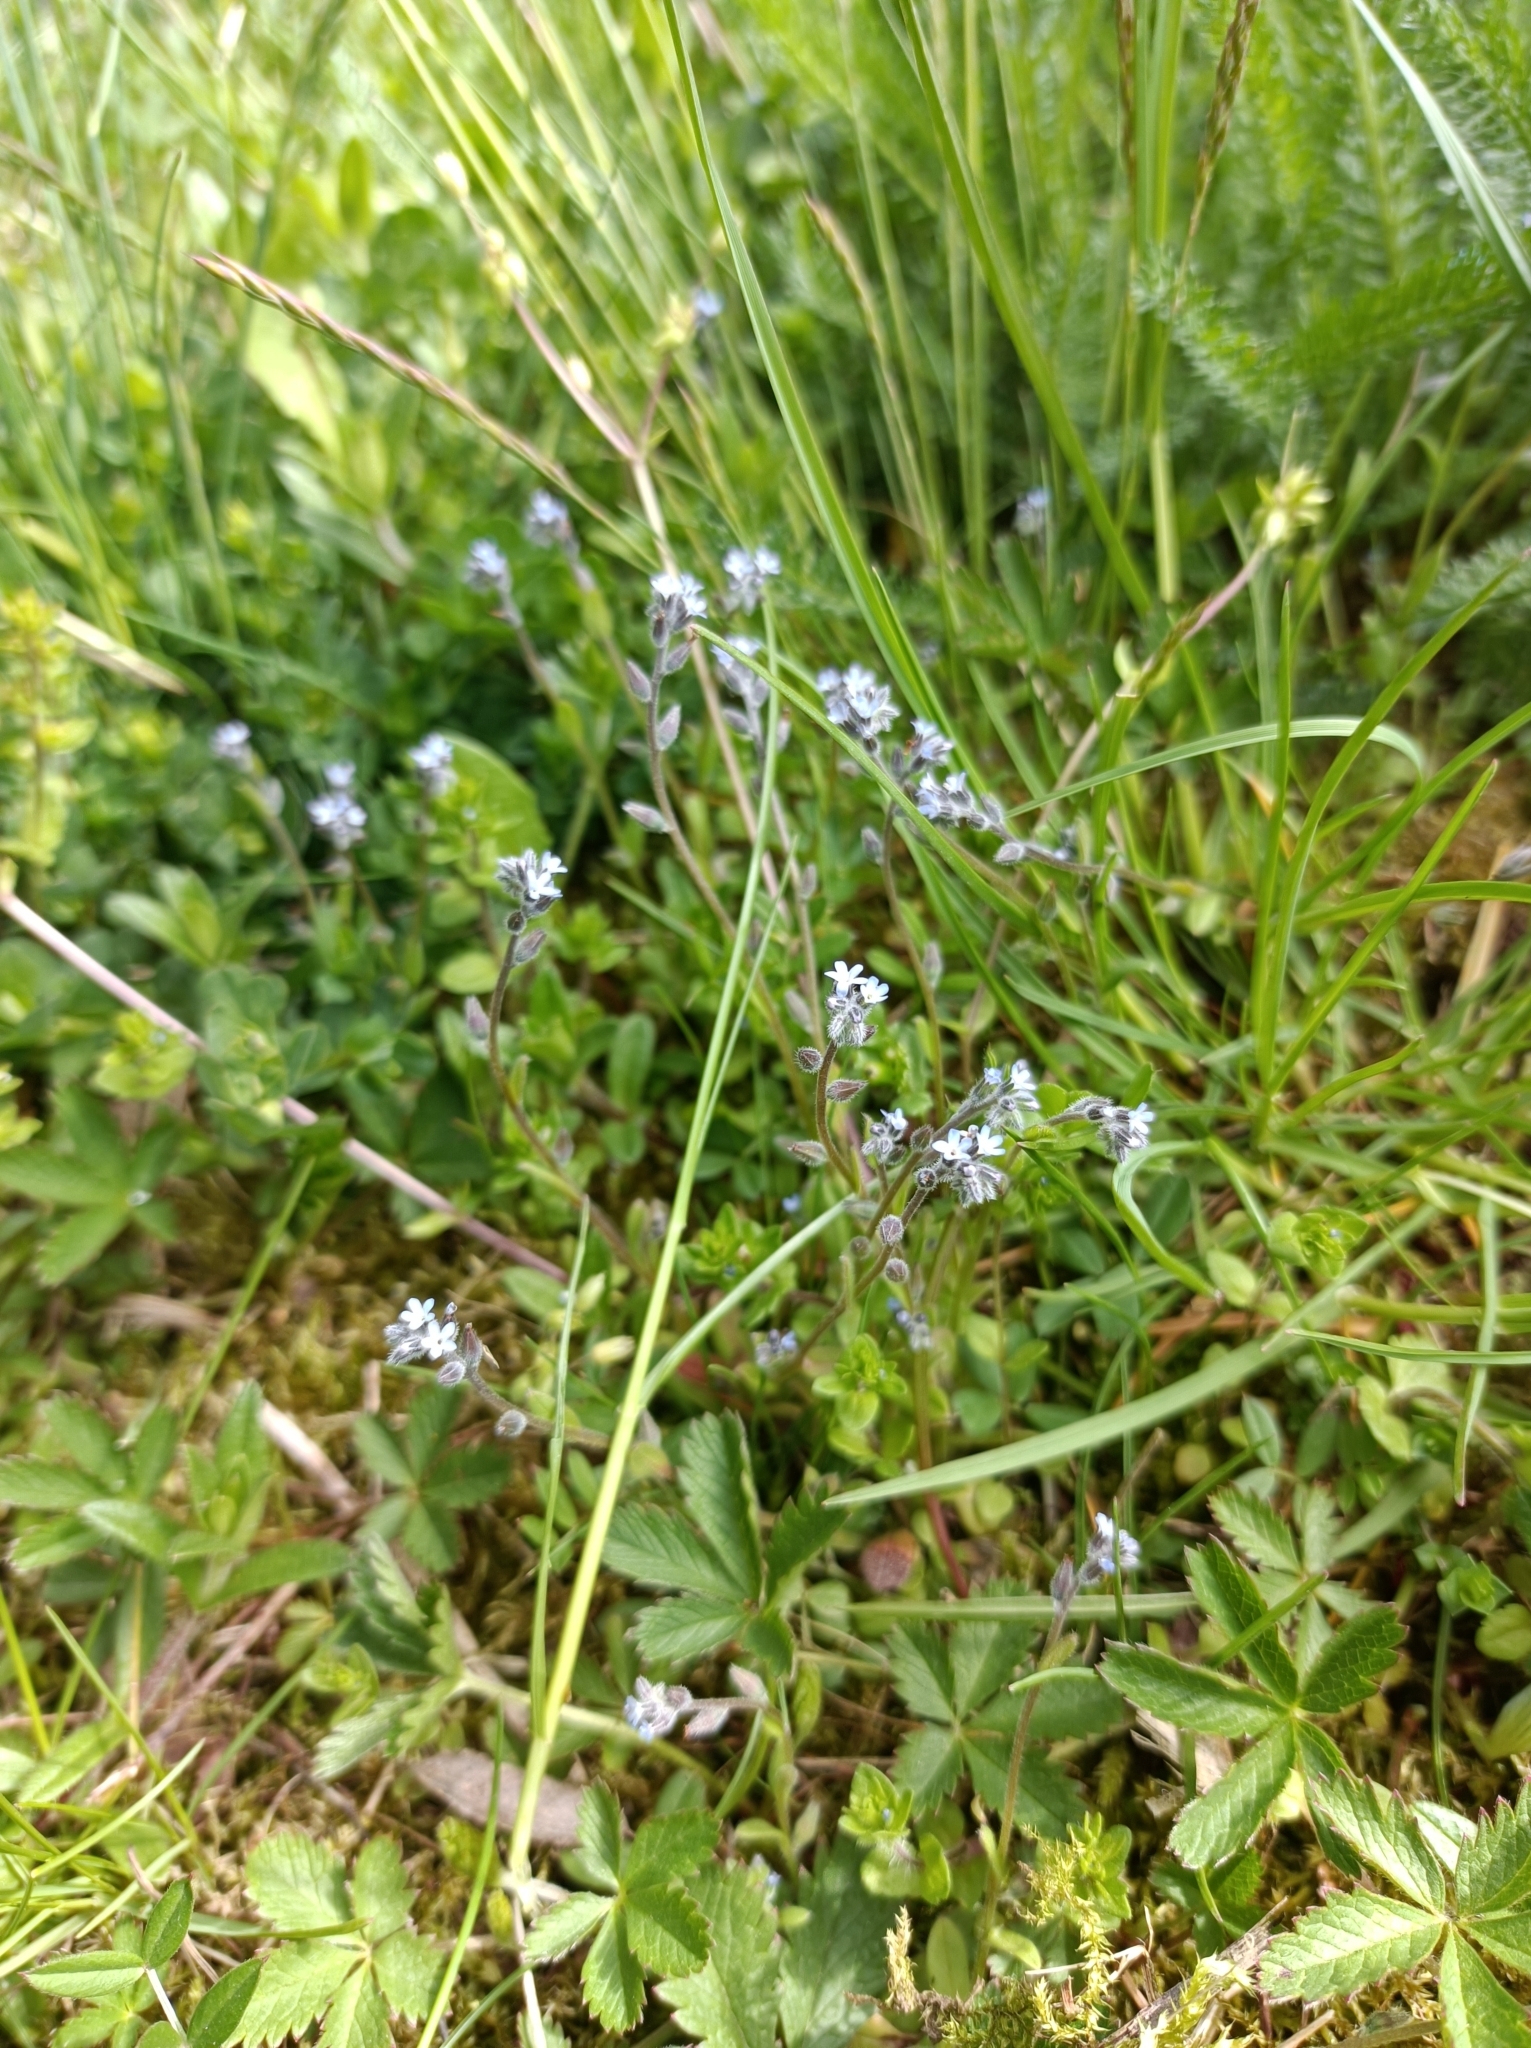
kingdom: Plantae
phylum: Tracheophyta
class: Magnoliopsida
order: Boraginales
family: Boraginaceae
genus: Myosotis
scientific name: Myosotis stricta
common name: Strict forget-me-not
